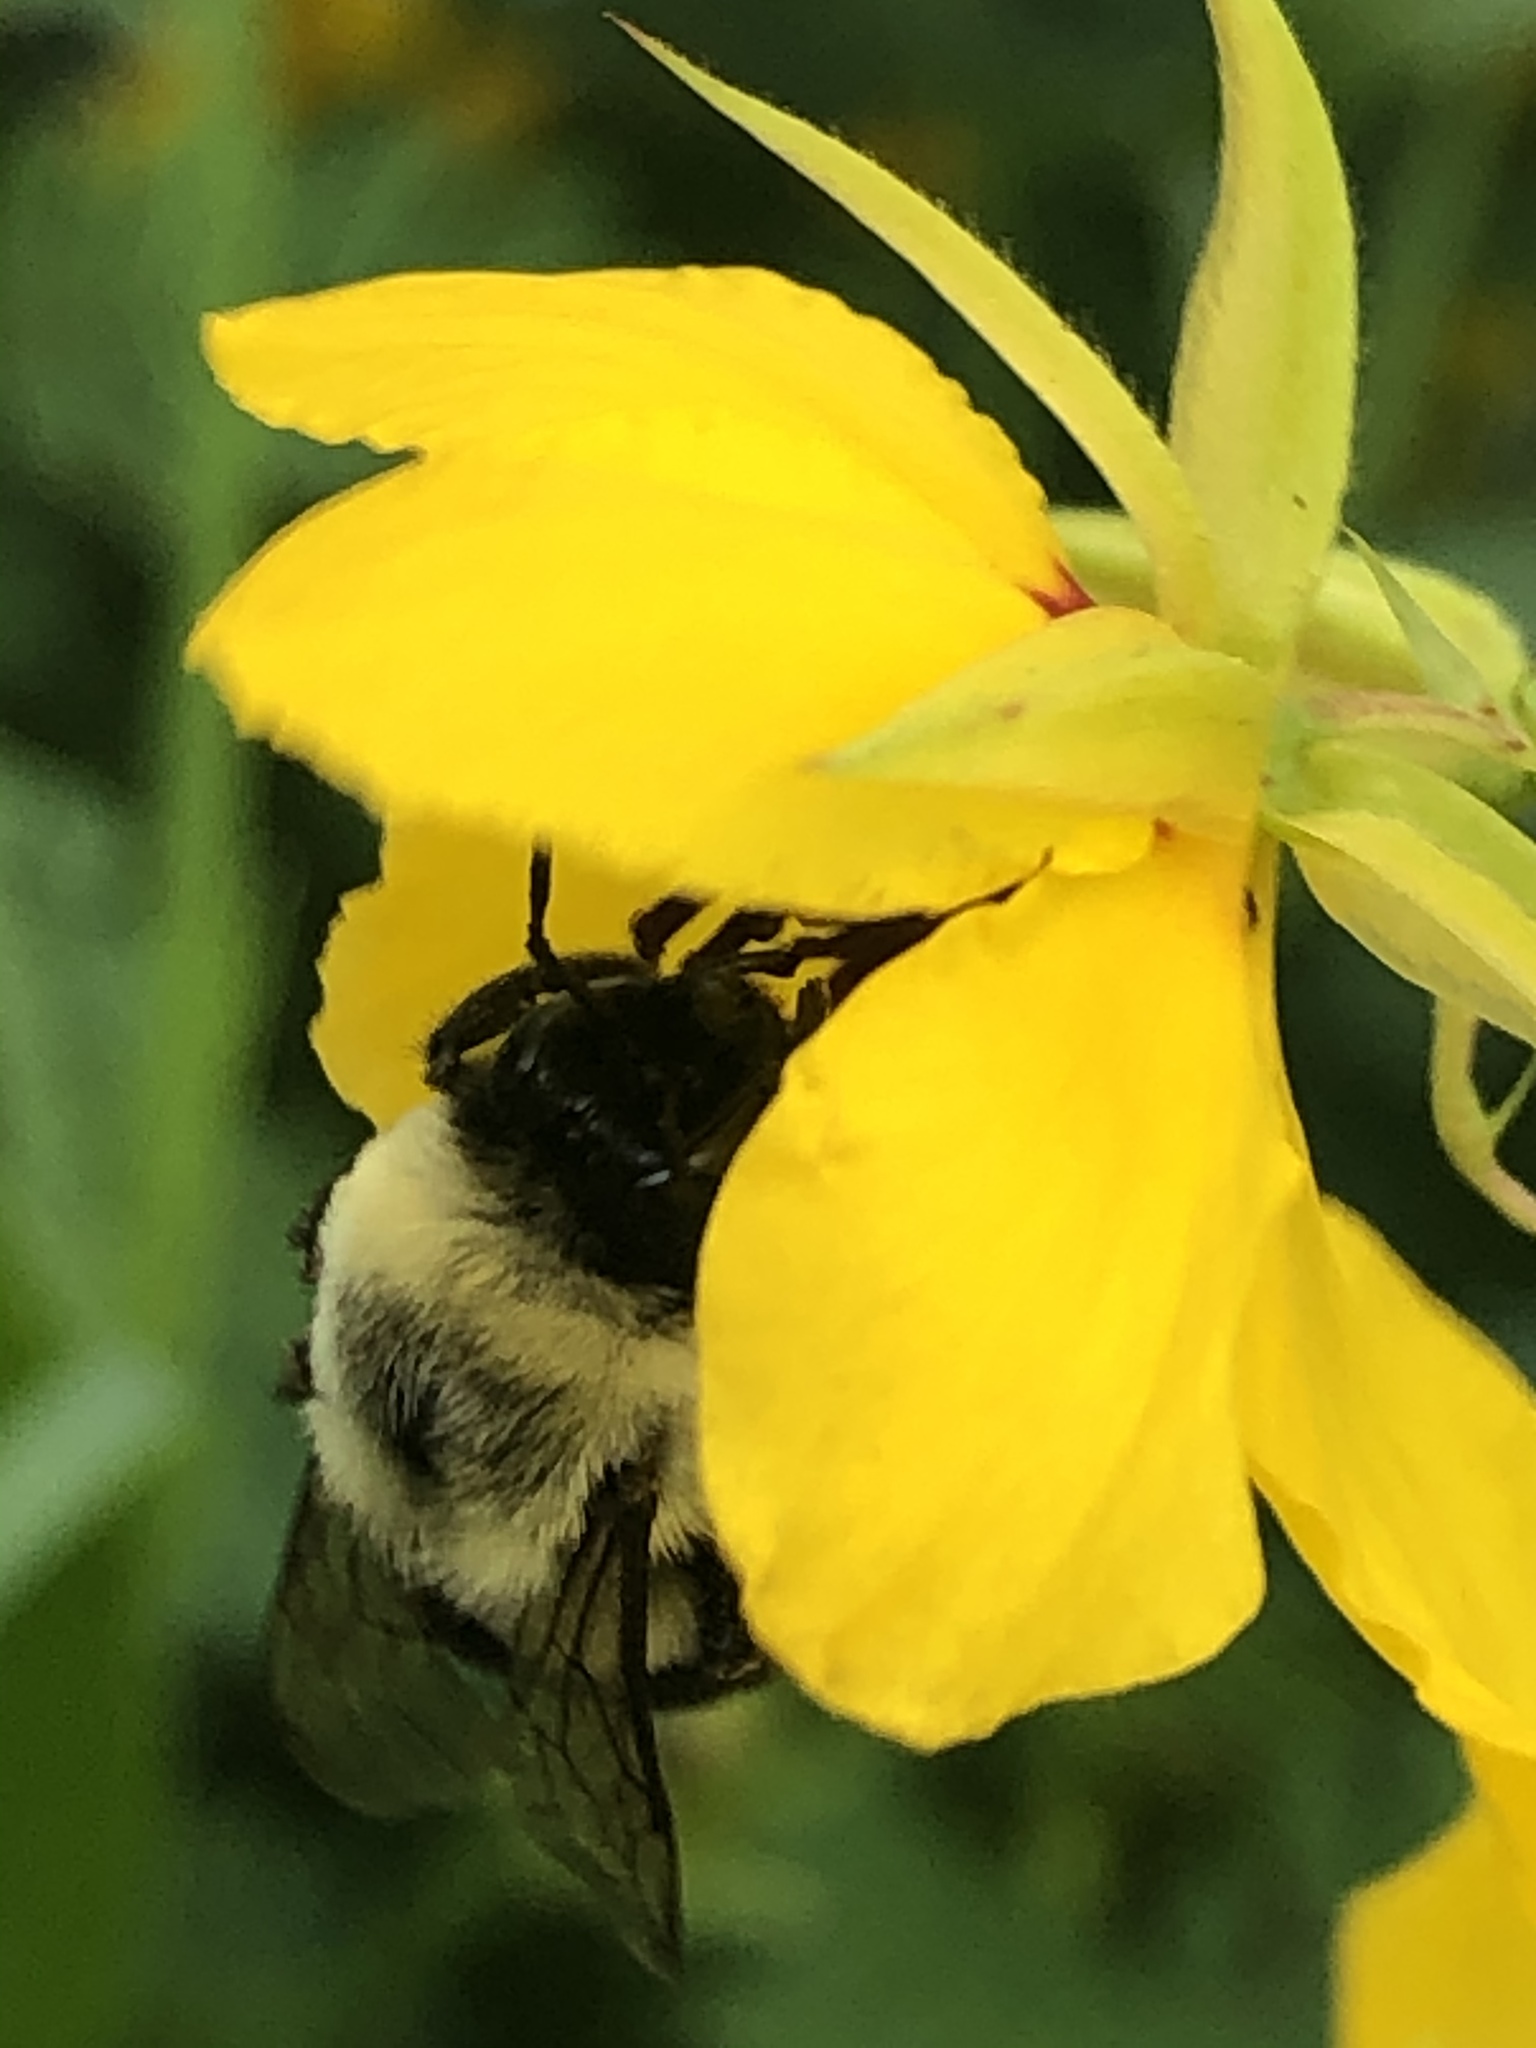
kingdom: Animalia
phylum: Arthropoda
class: Insecta
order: Hymenoptera
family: Apidae
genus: Bombus
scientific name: Bombus impatiens
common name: Common eastern bumble bee
